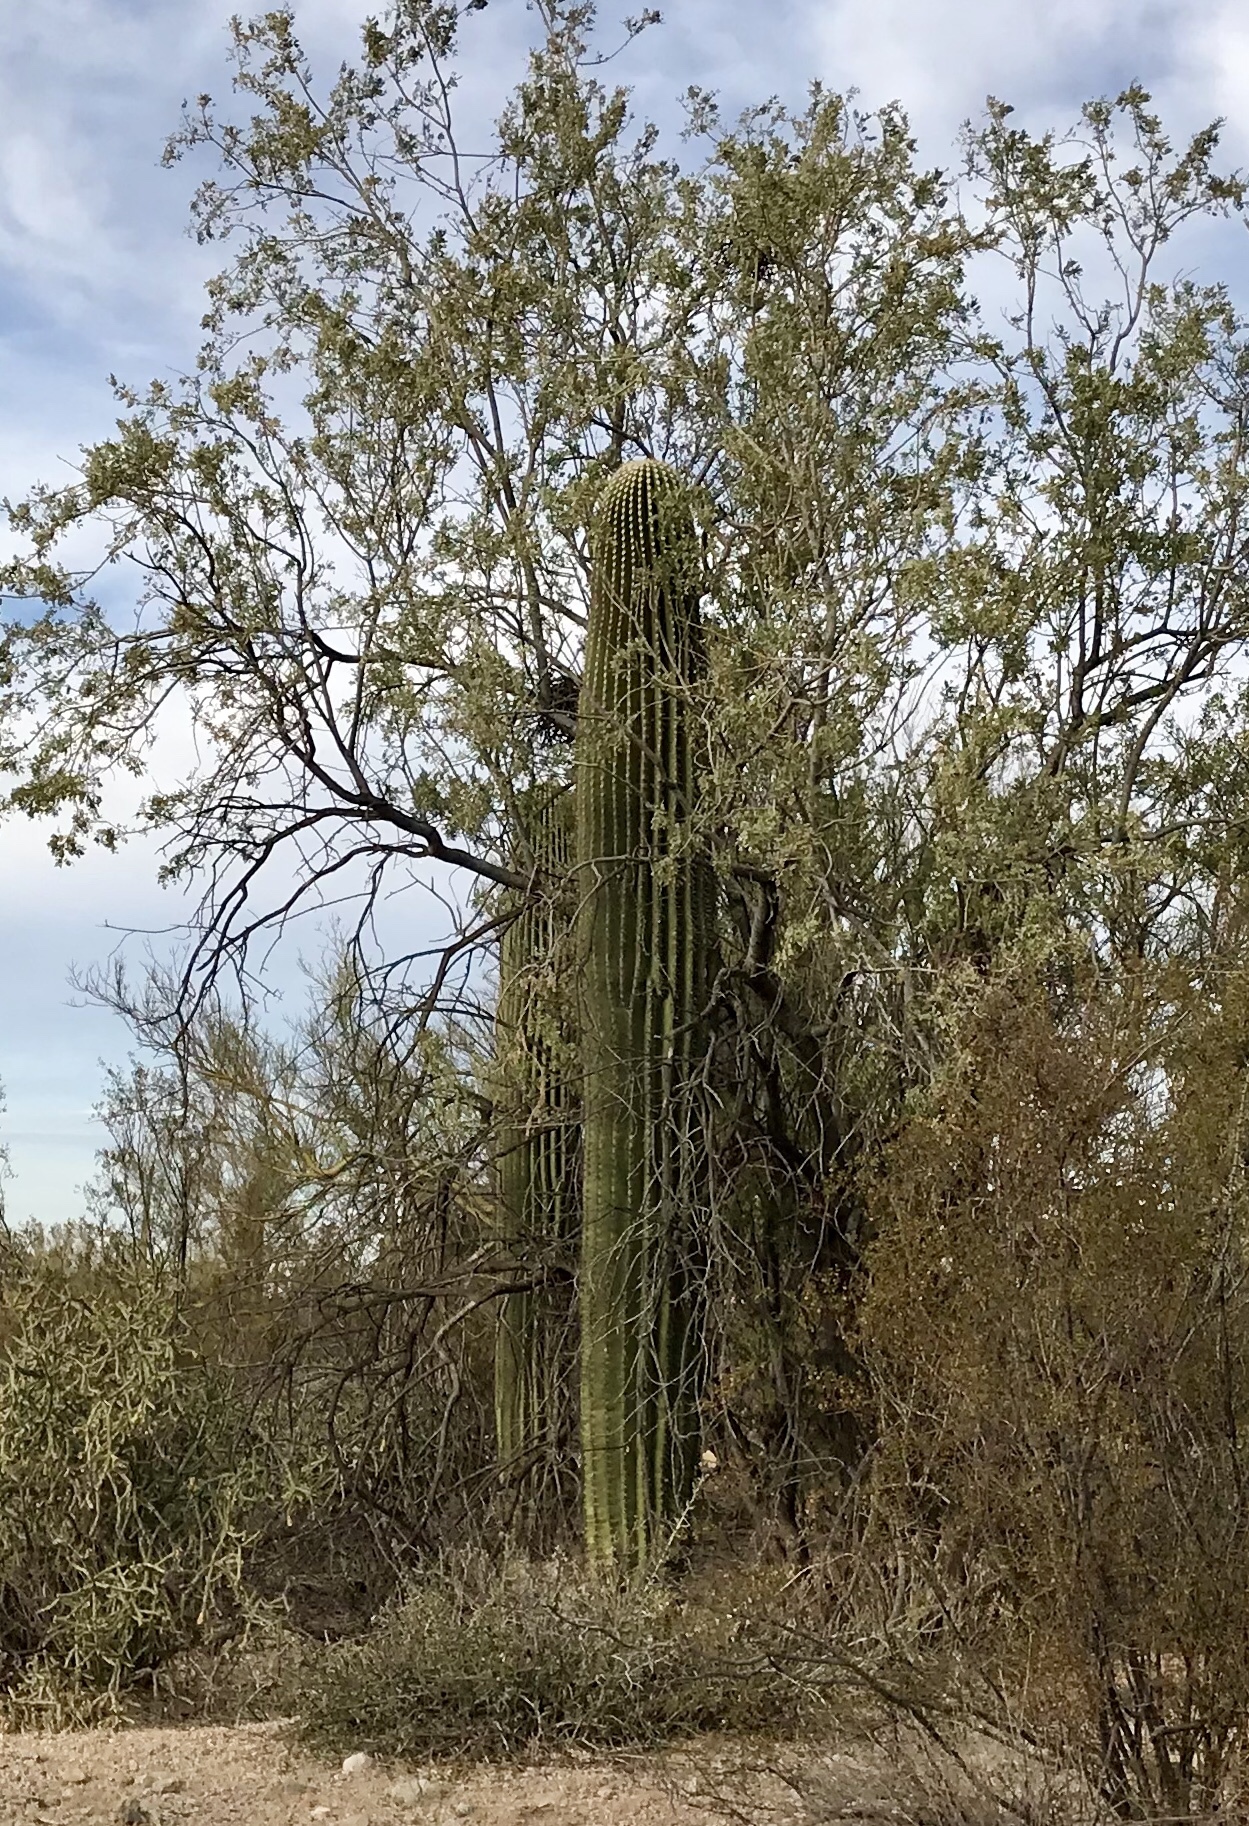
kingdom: Plantae
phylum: Tracheophyta
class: Magnoliopsida
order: Caryophyllales
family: Cactaceae
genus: Carnegiea
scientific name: Carnegiea gigantea
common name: Saguaro
